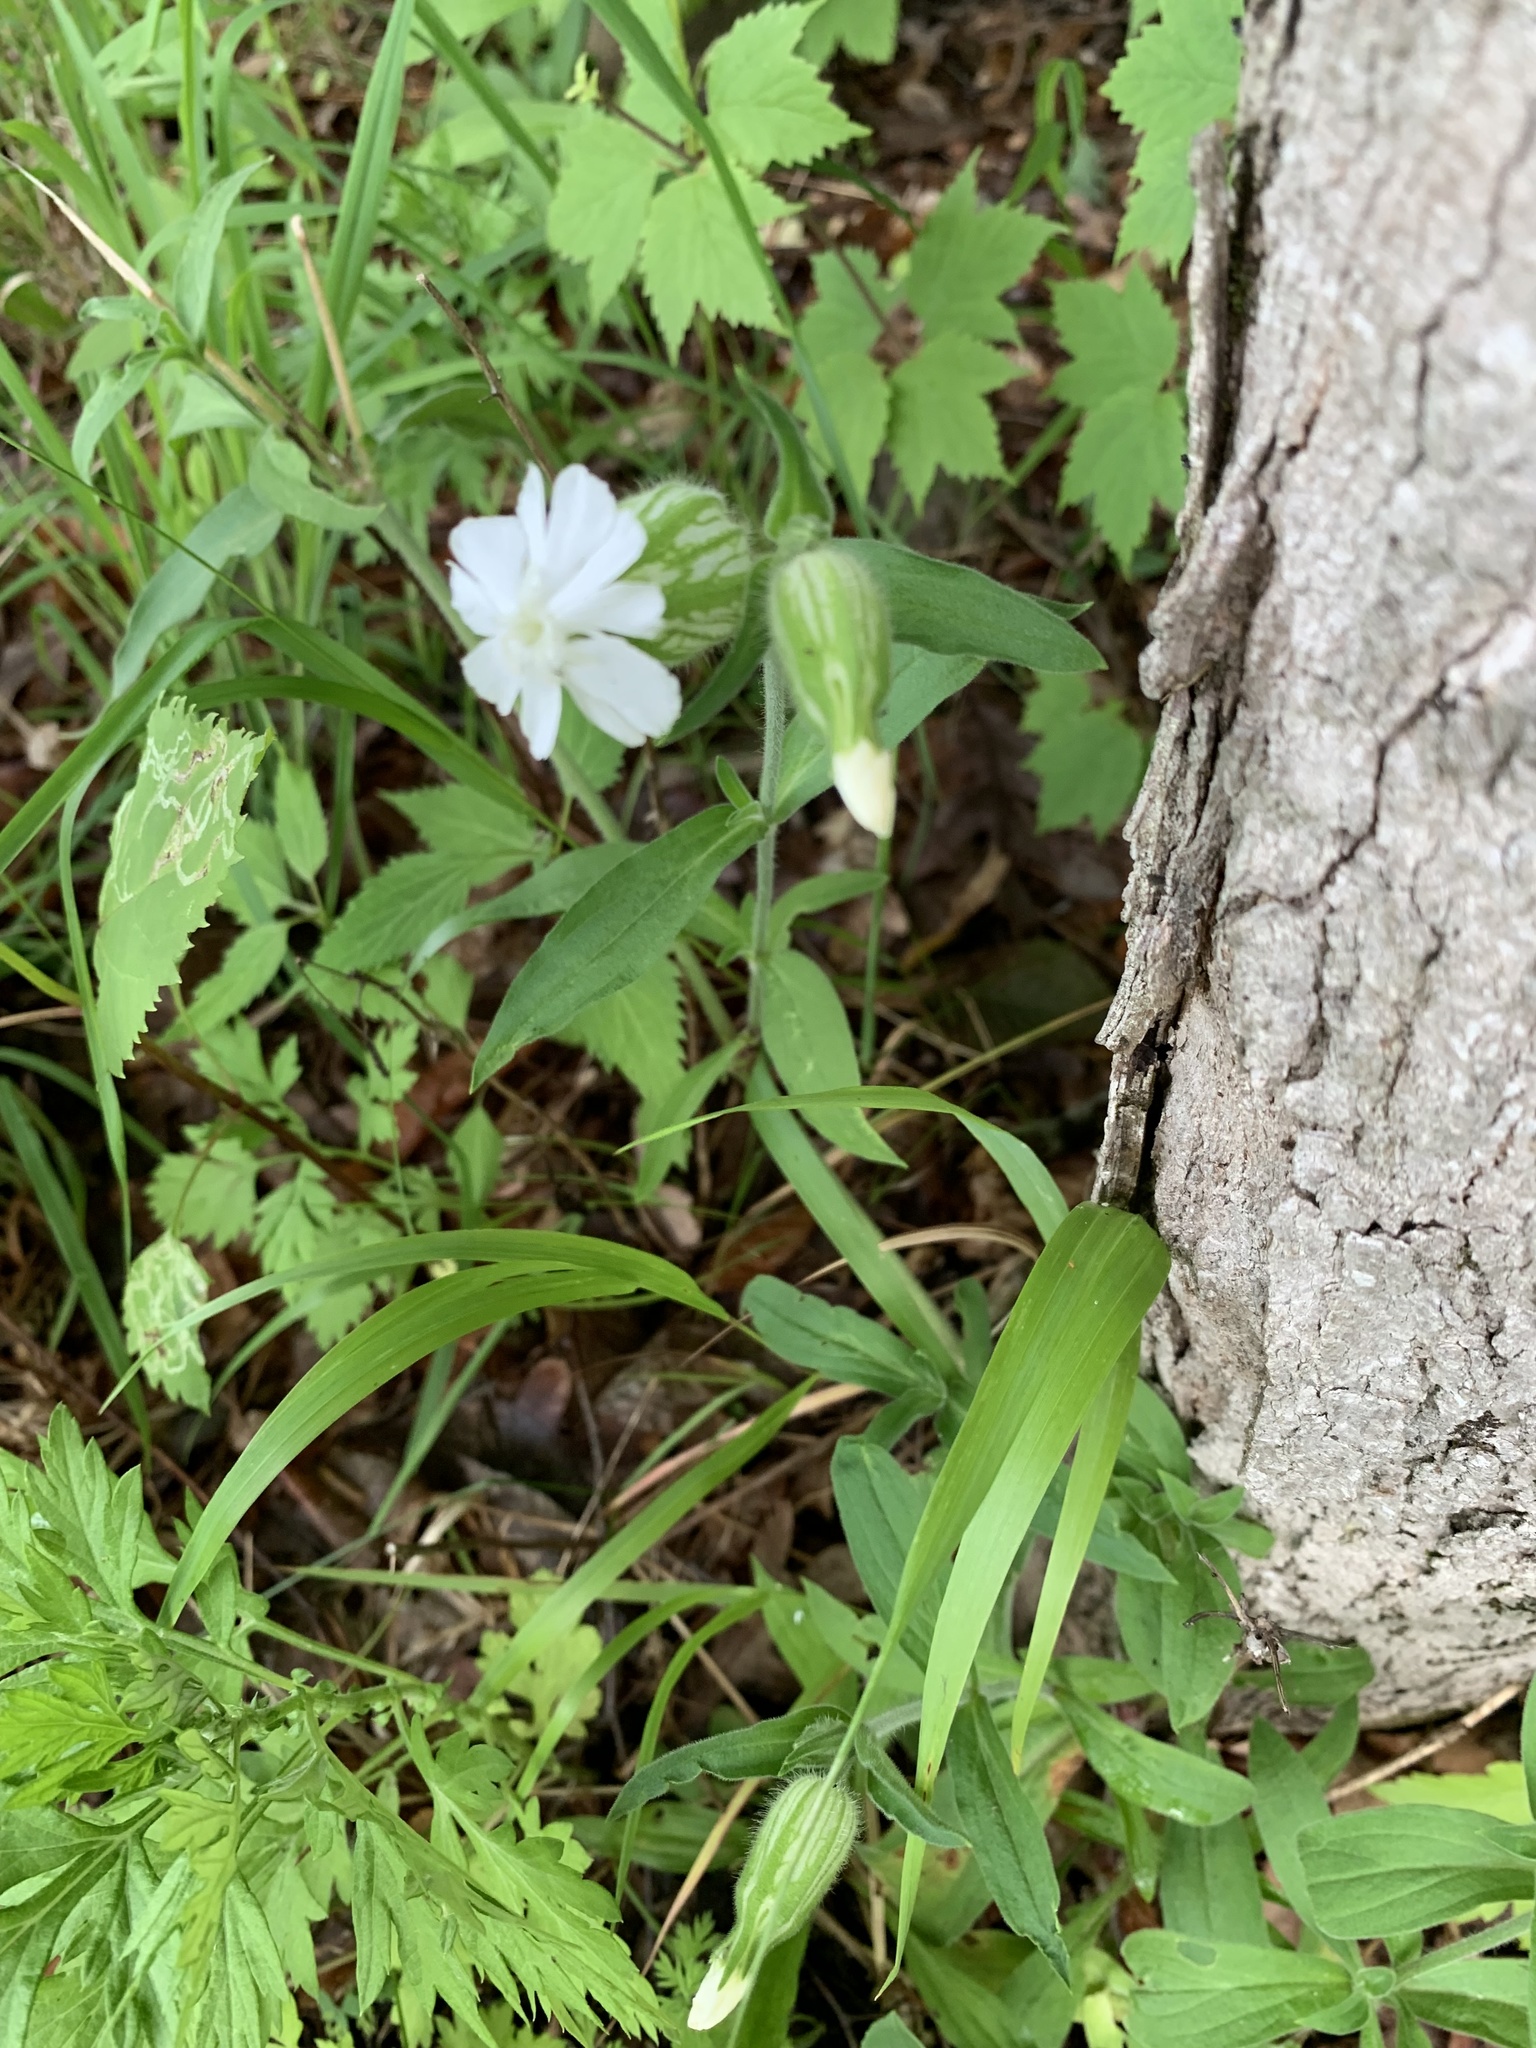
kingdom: Plantae
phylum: Tracheophyta
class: Magnoliopsida
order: Caryophyllales
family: Caryophyllaceae
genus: Silene
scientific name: Silene latifolia
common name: White campion
